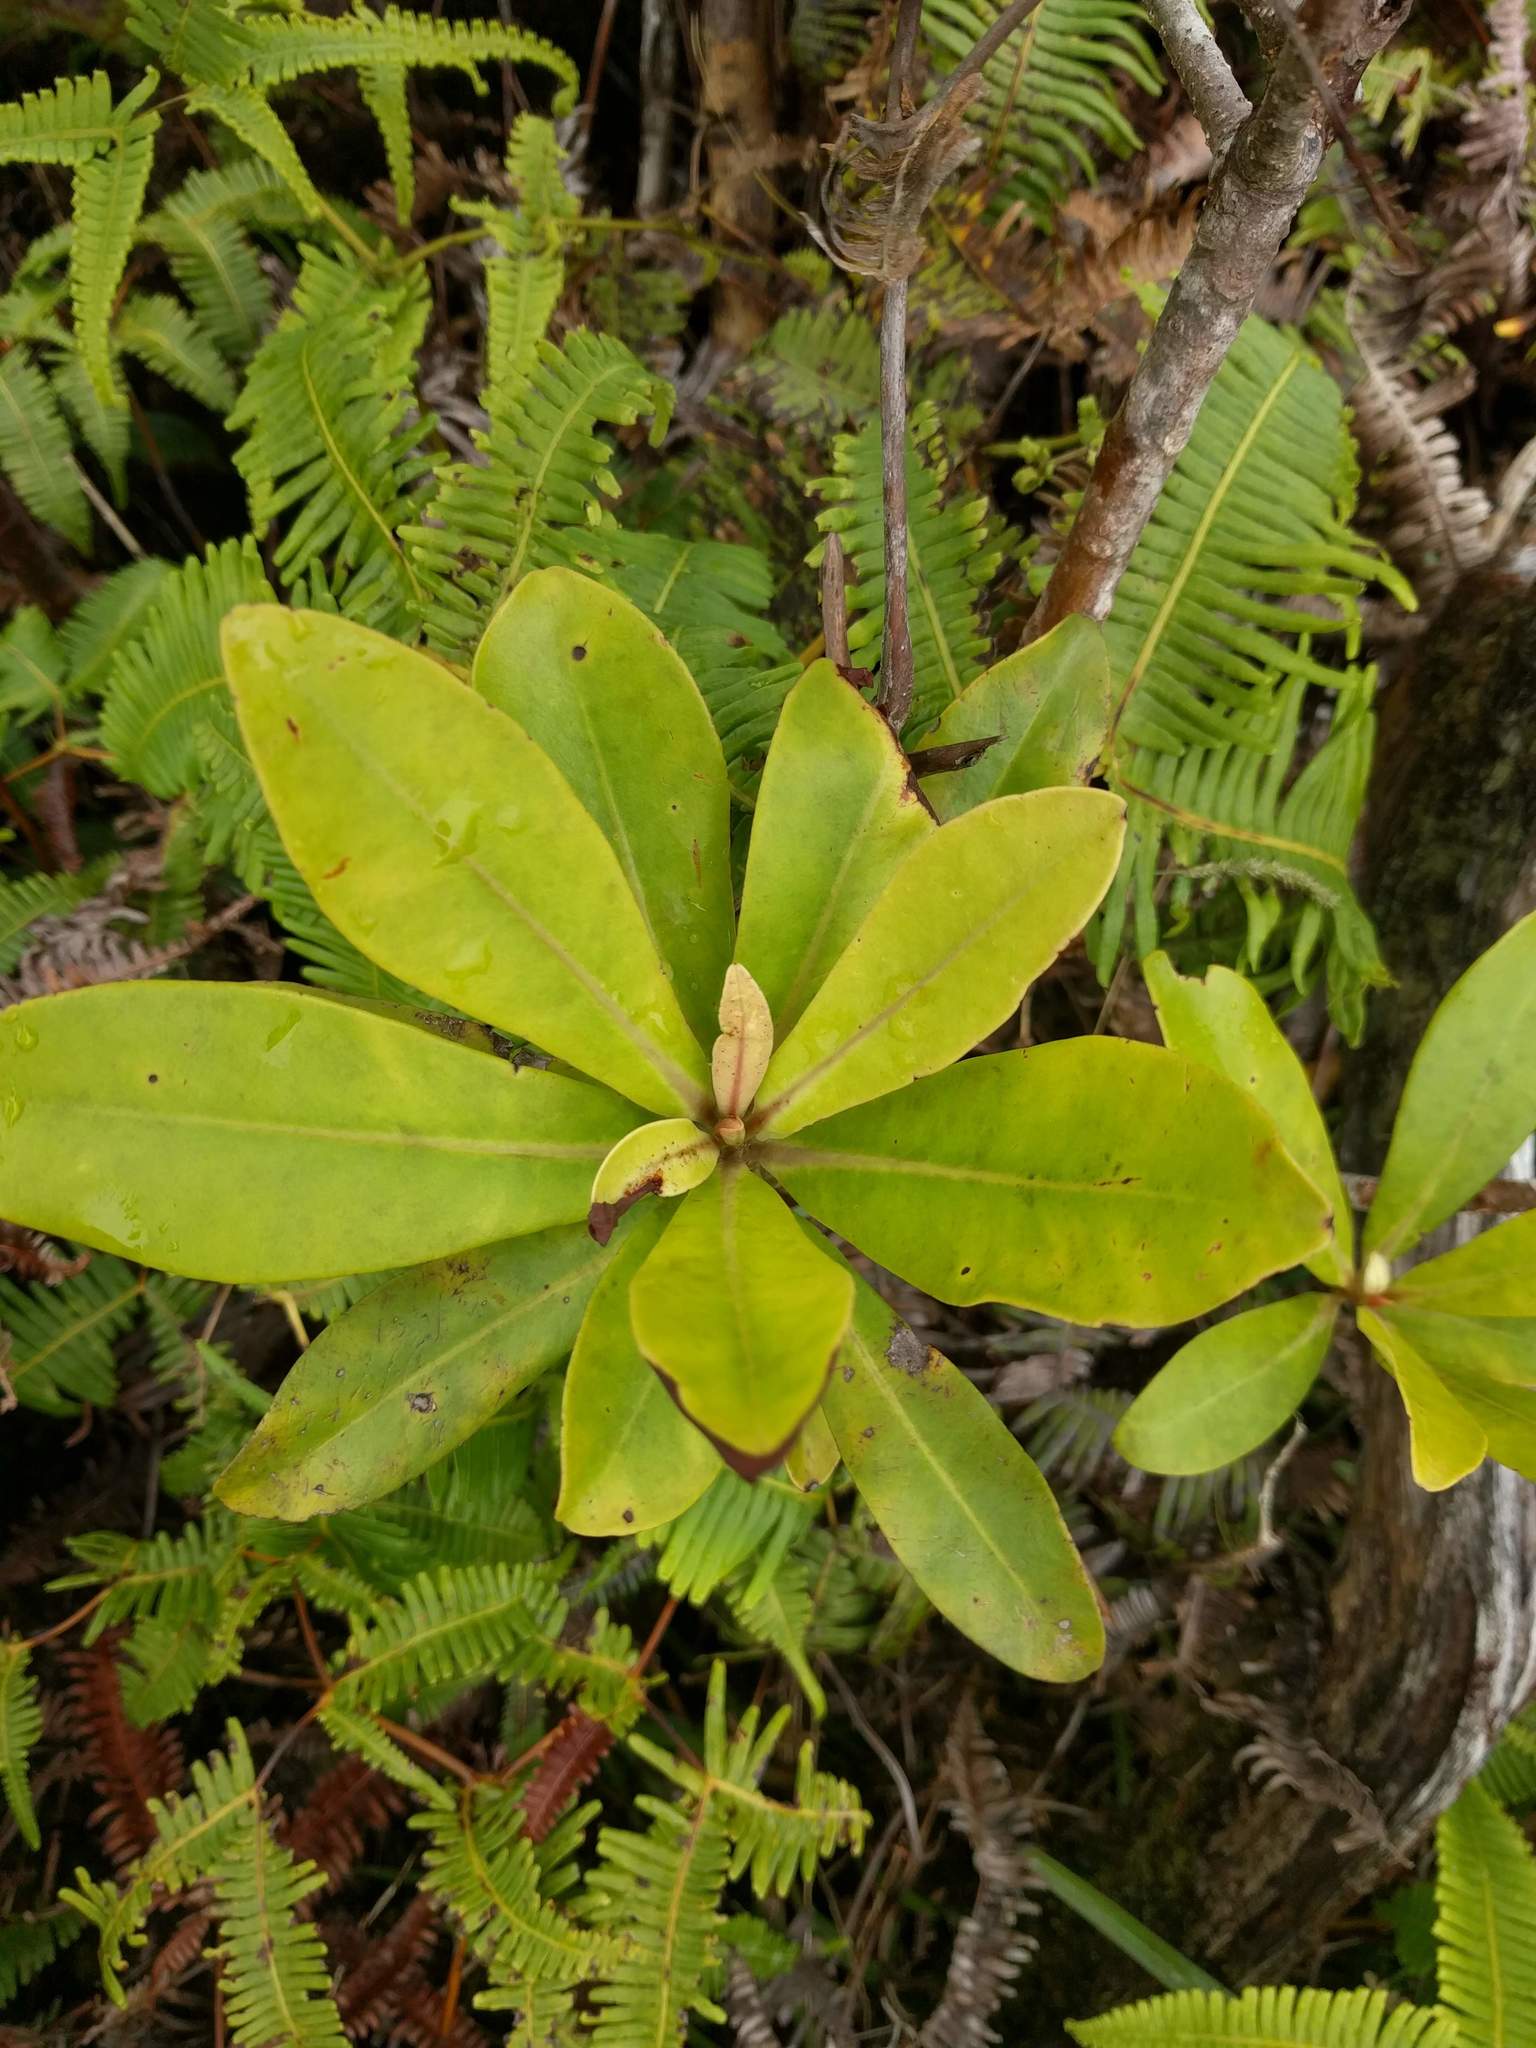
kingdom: Plantae
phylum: Tracheophyta
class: Magnoliopsida
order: Ericales
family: Primulaceae
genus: Myrsine
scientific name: Myrsine lessertiana
